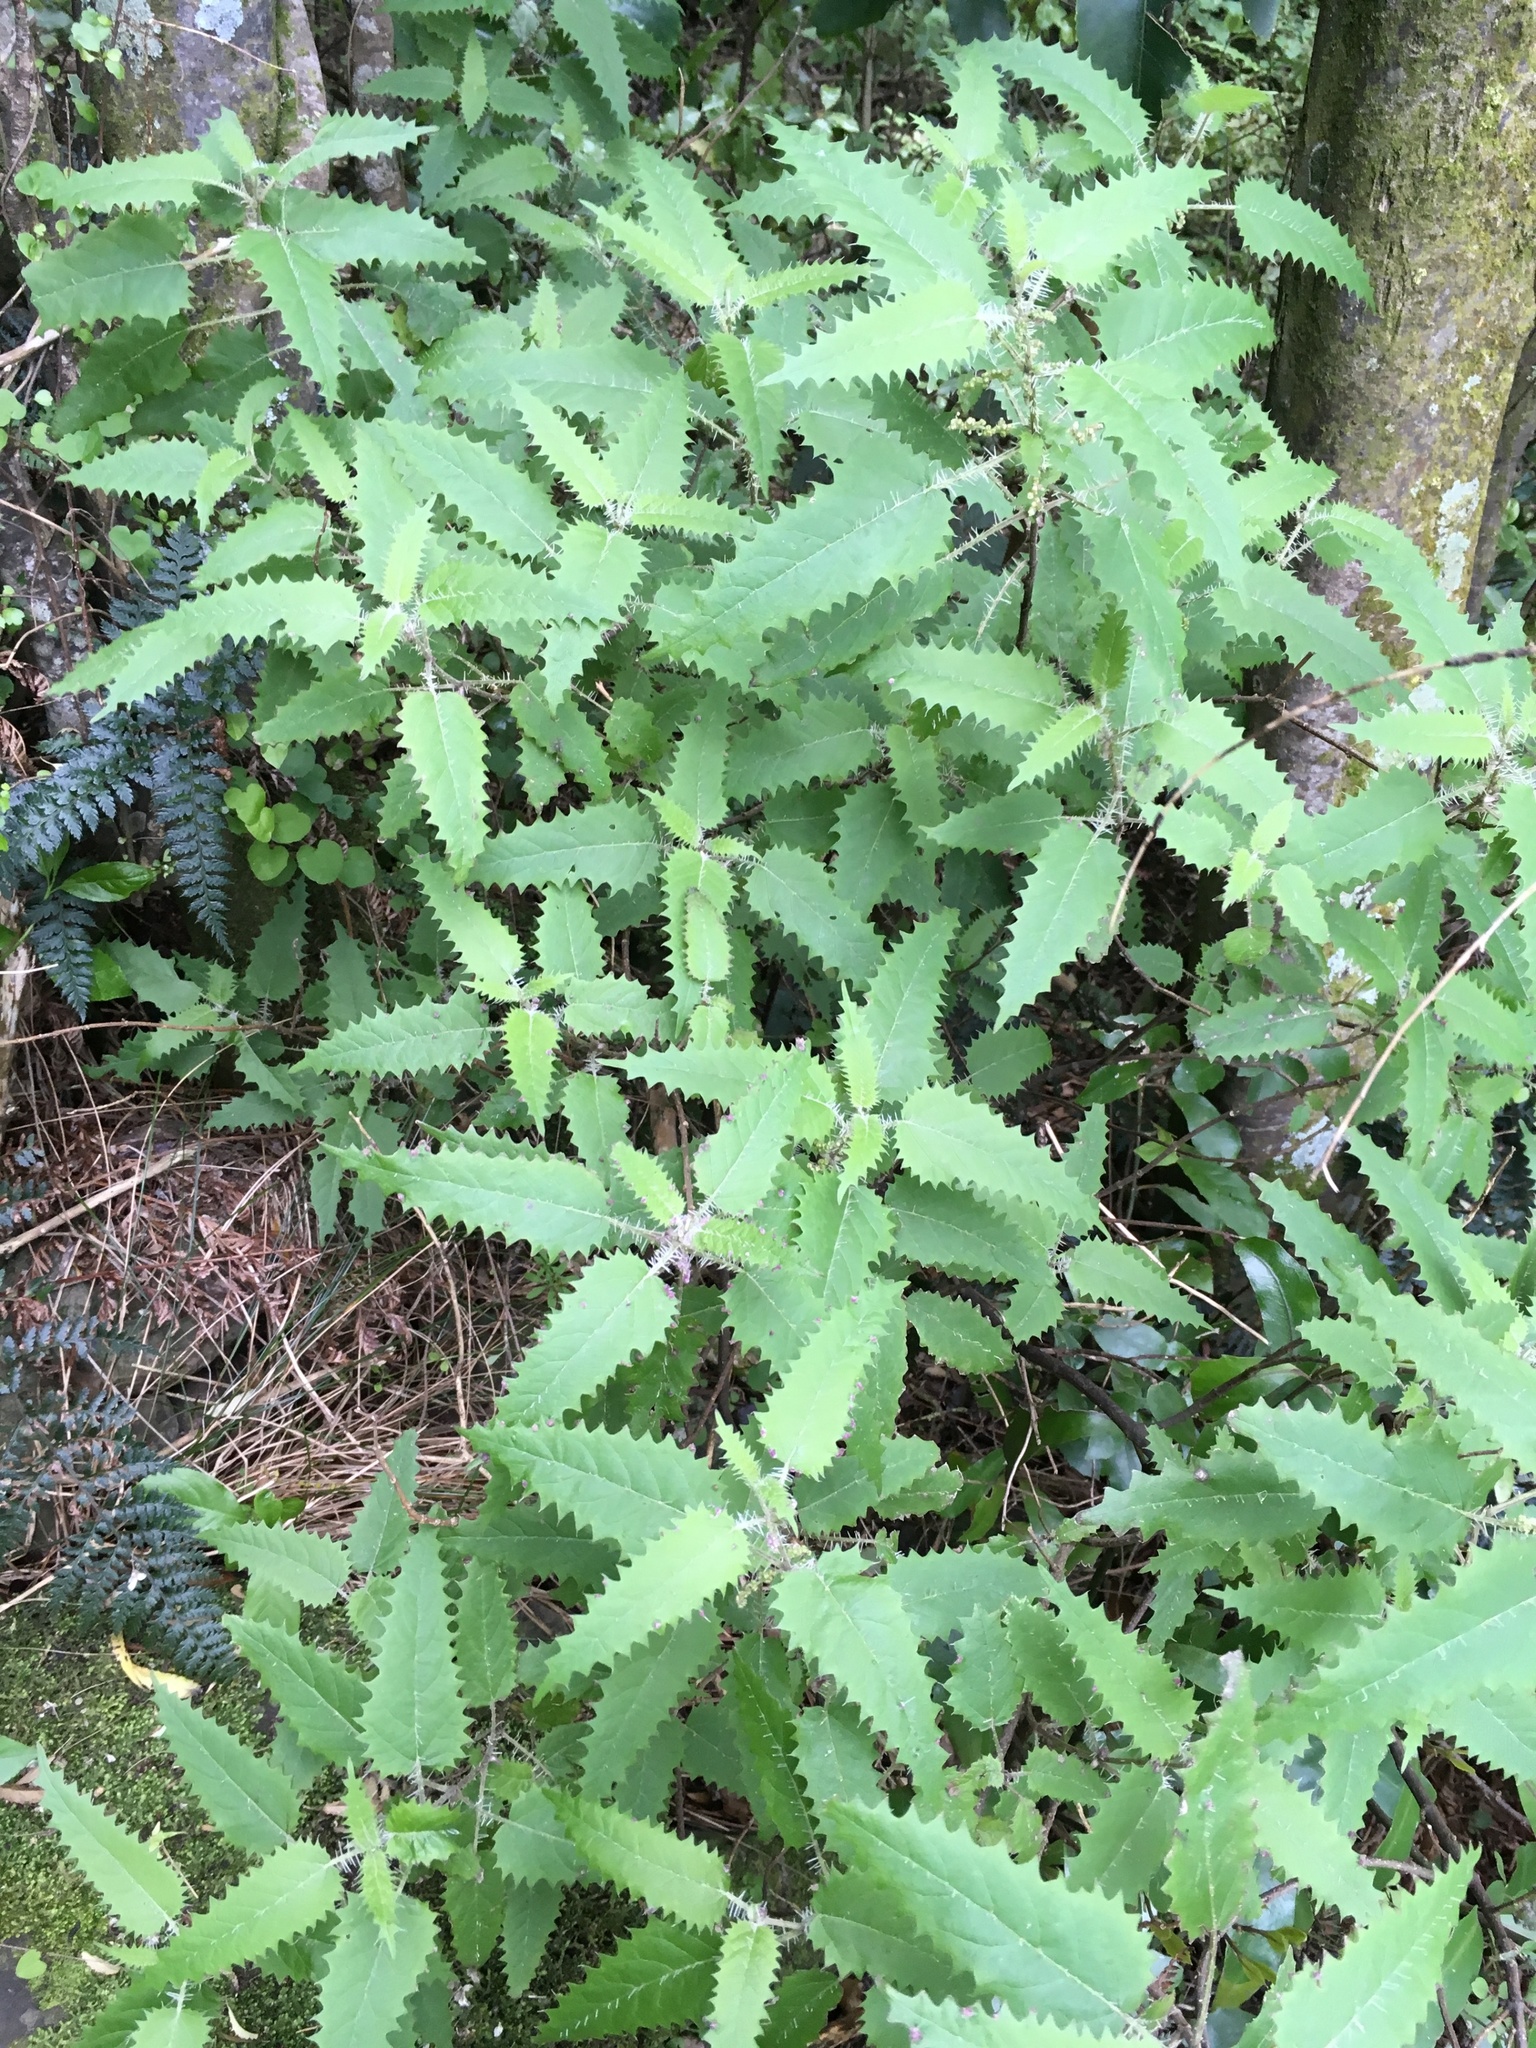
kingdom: Plantae
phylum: Tracheophyta
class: Magnoliopsida
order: Rosales
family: Urticaceae
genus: Urtica
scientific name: Urtica ferox
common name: Tree nettle
